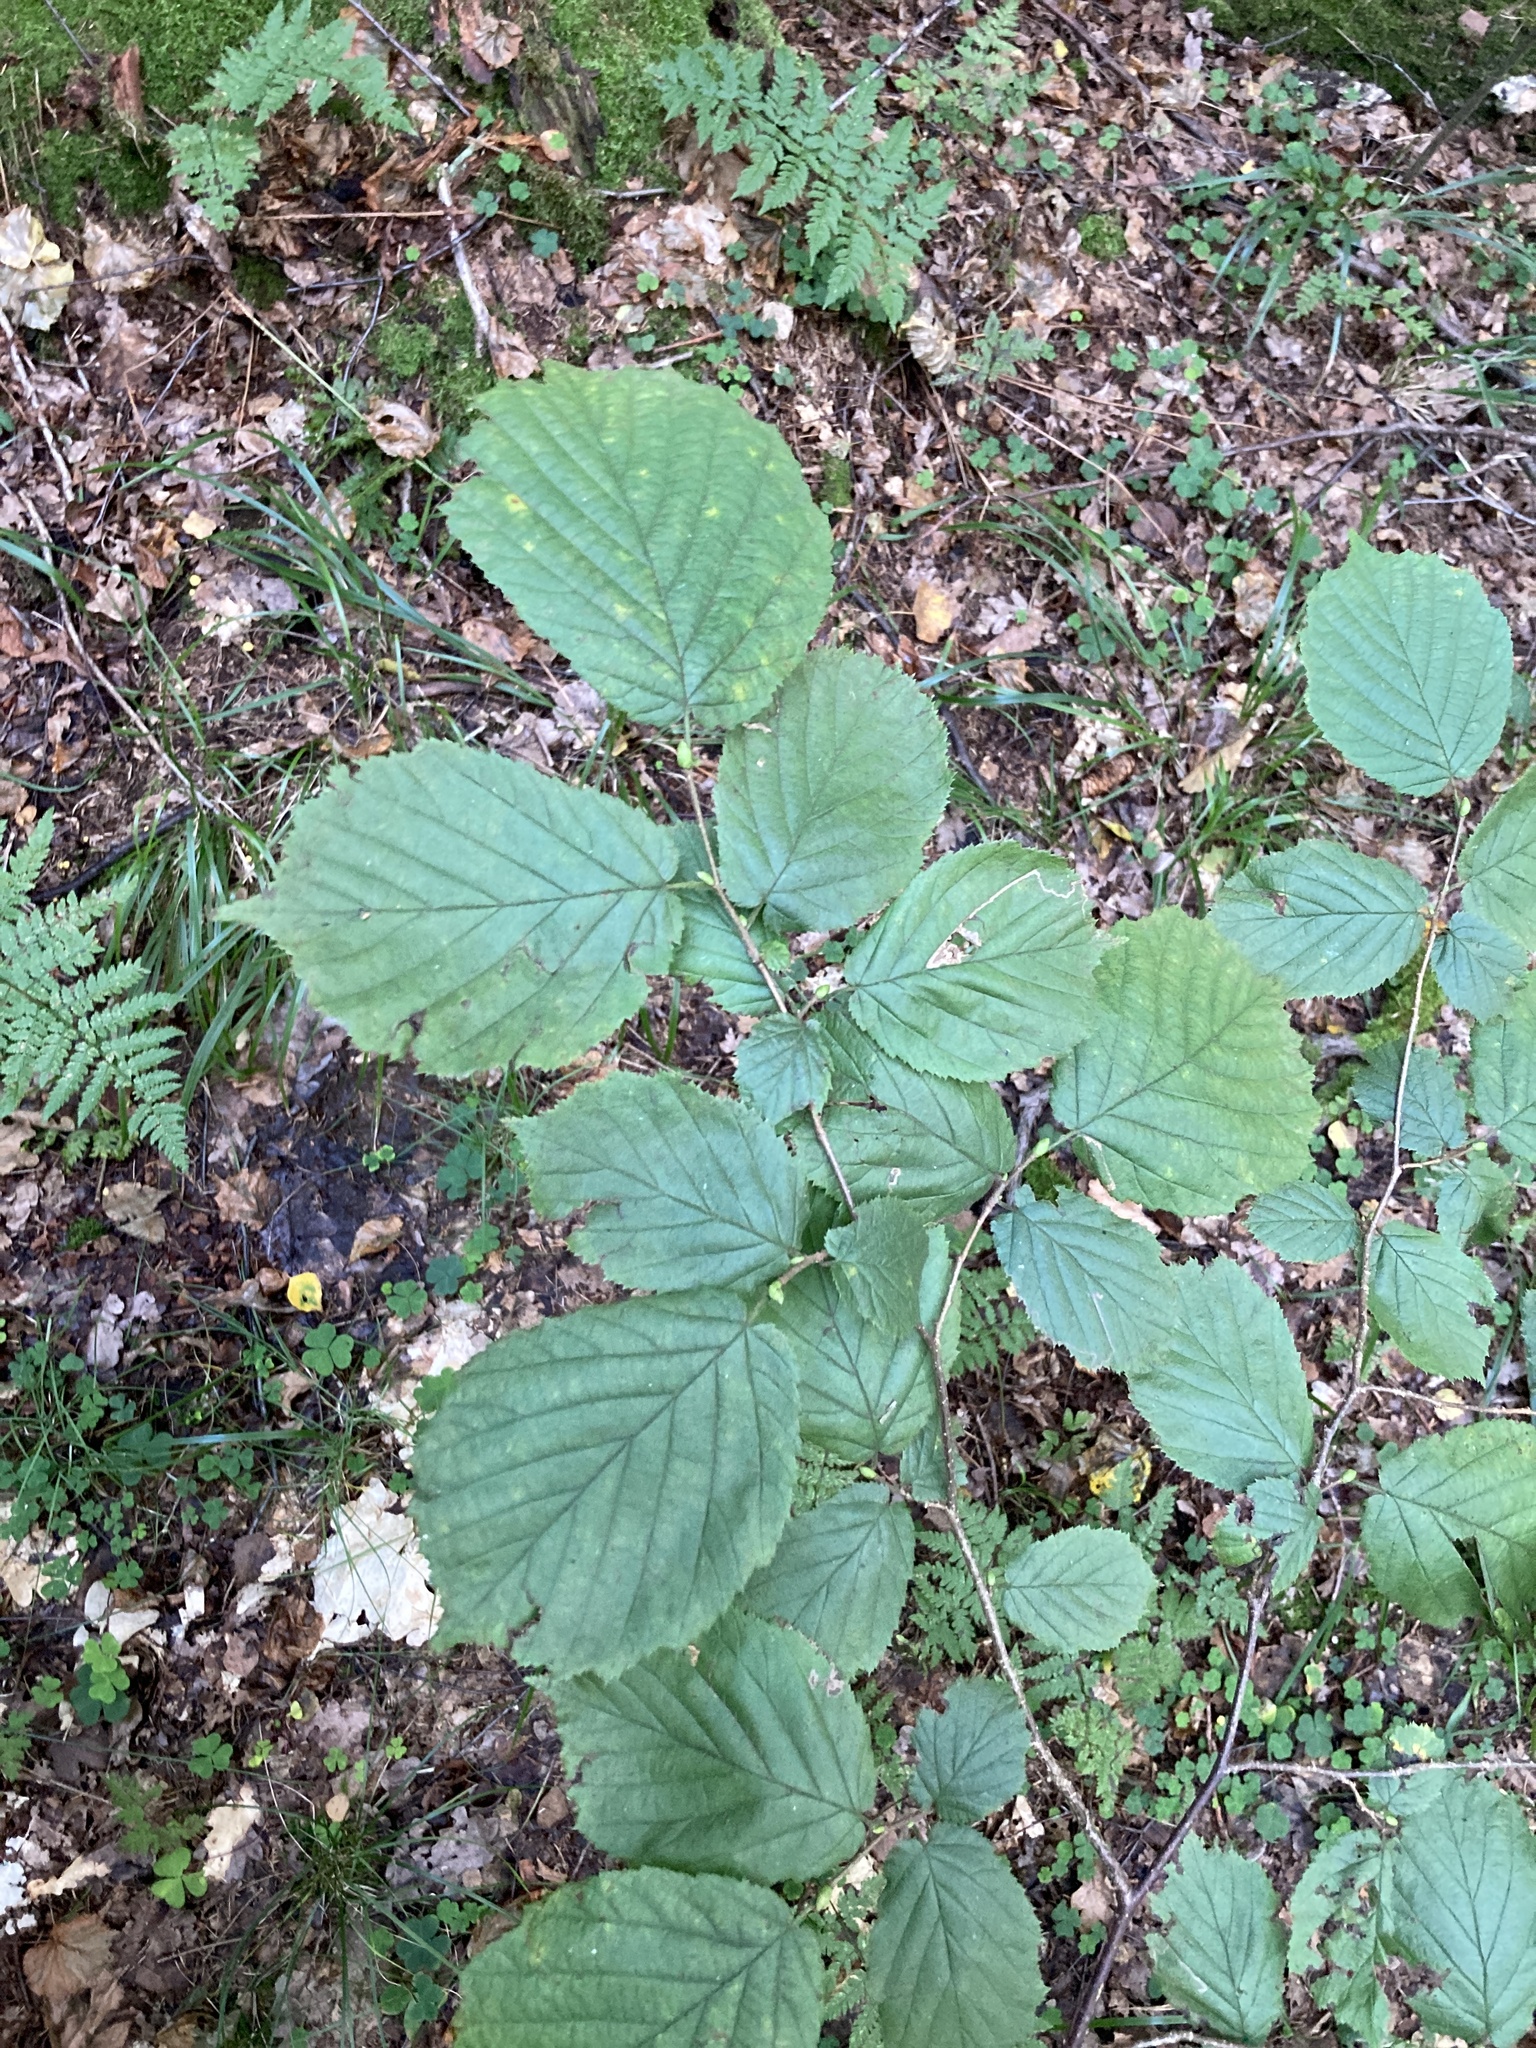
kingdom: Plantae
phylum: Tracheophyta
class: Magnoliopsida
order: Fagales
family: Betulaceae
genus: Corylus
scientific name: Corylus avellana
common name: European hazel
